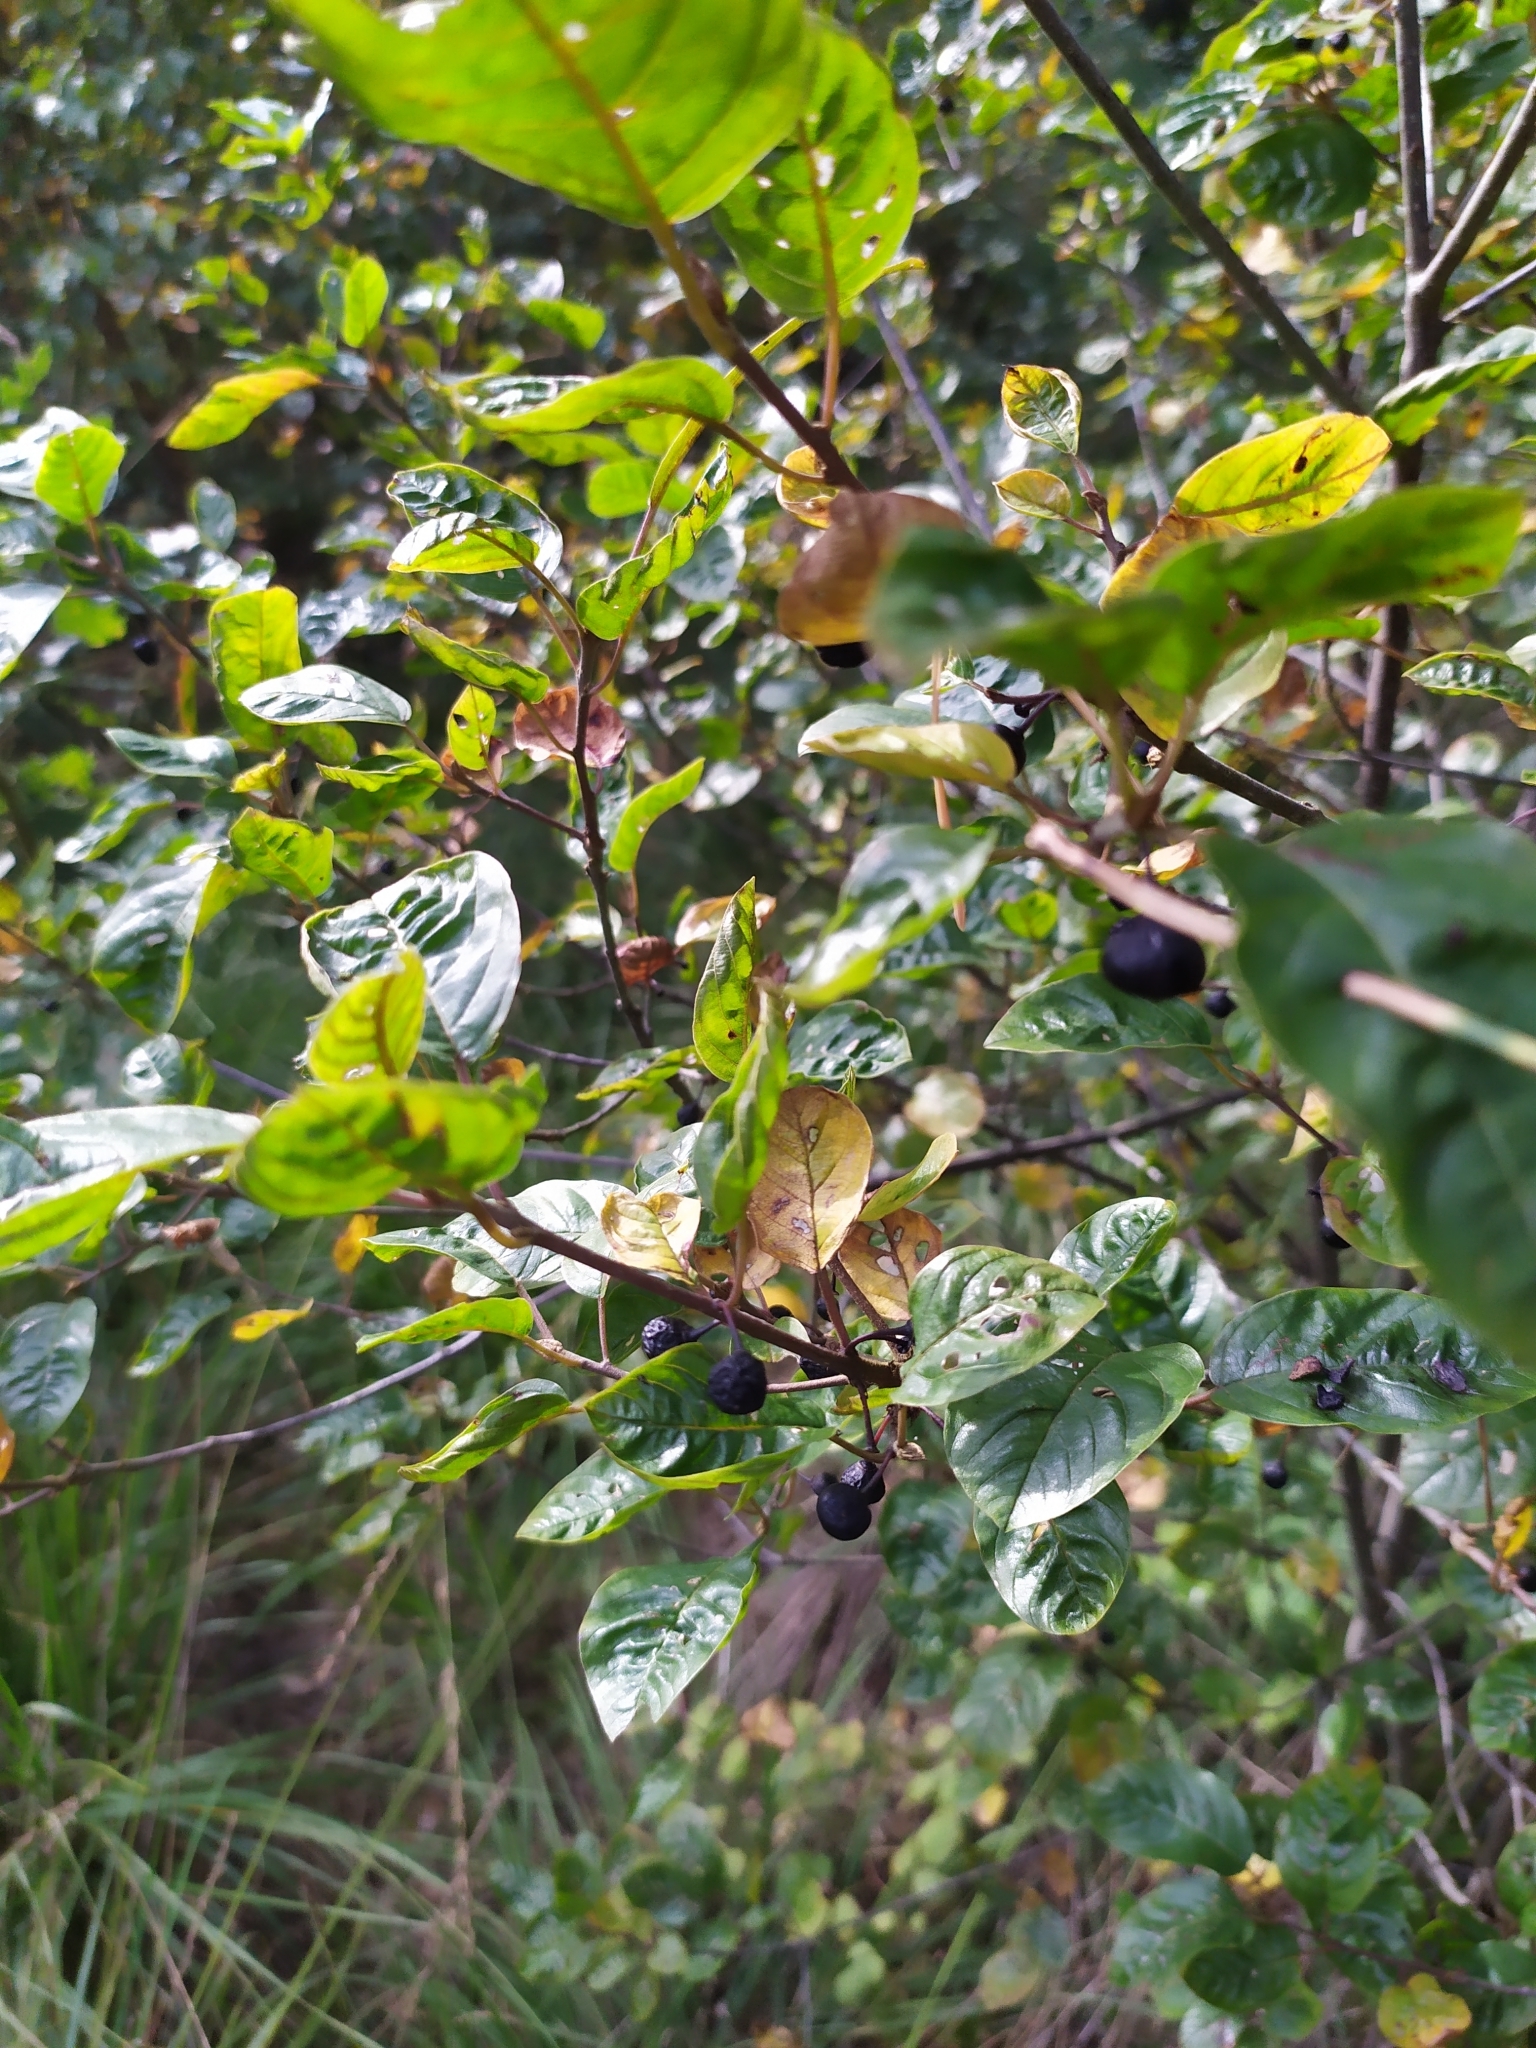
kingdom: Plantae
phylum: Tracheophyta
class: Magnoliopsida
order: Rosales
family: Rhamnaceae
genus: Rhamnus
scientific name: Rhamnus cathartica
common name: Common buckthorn
